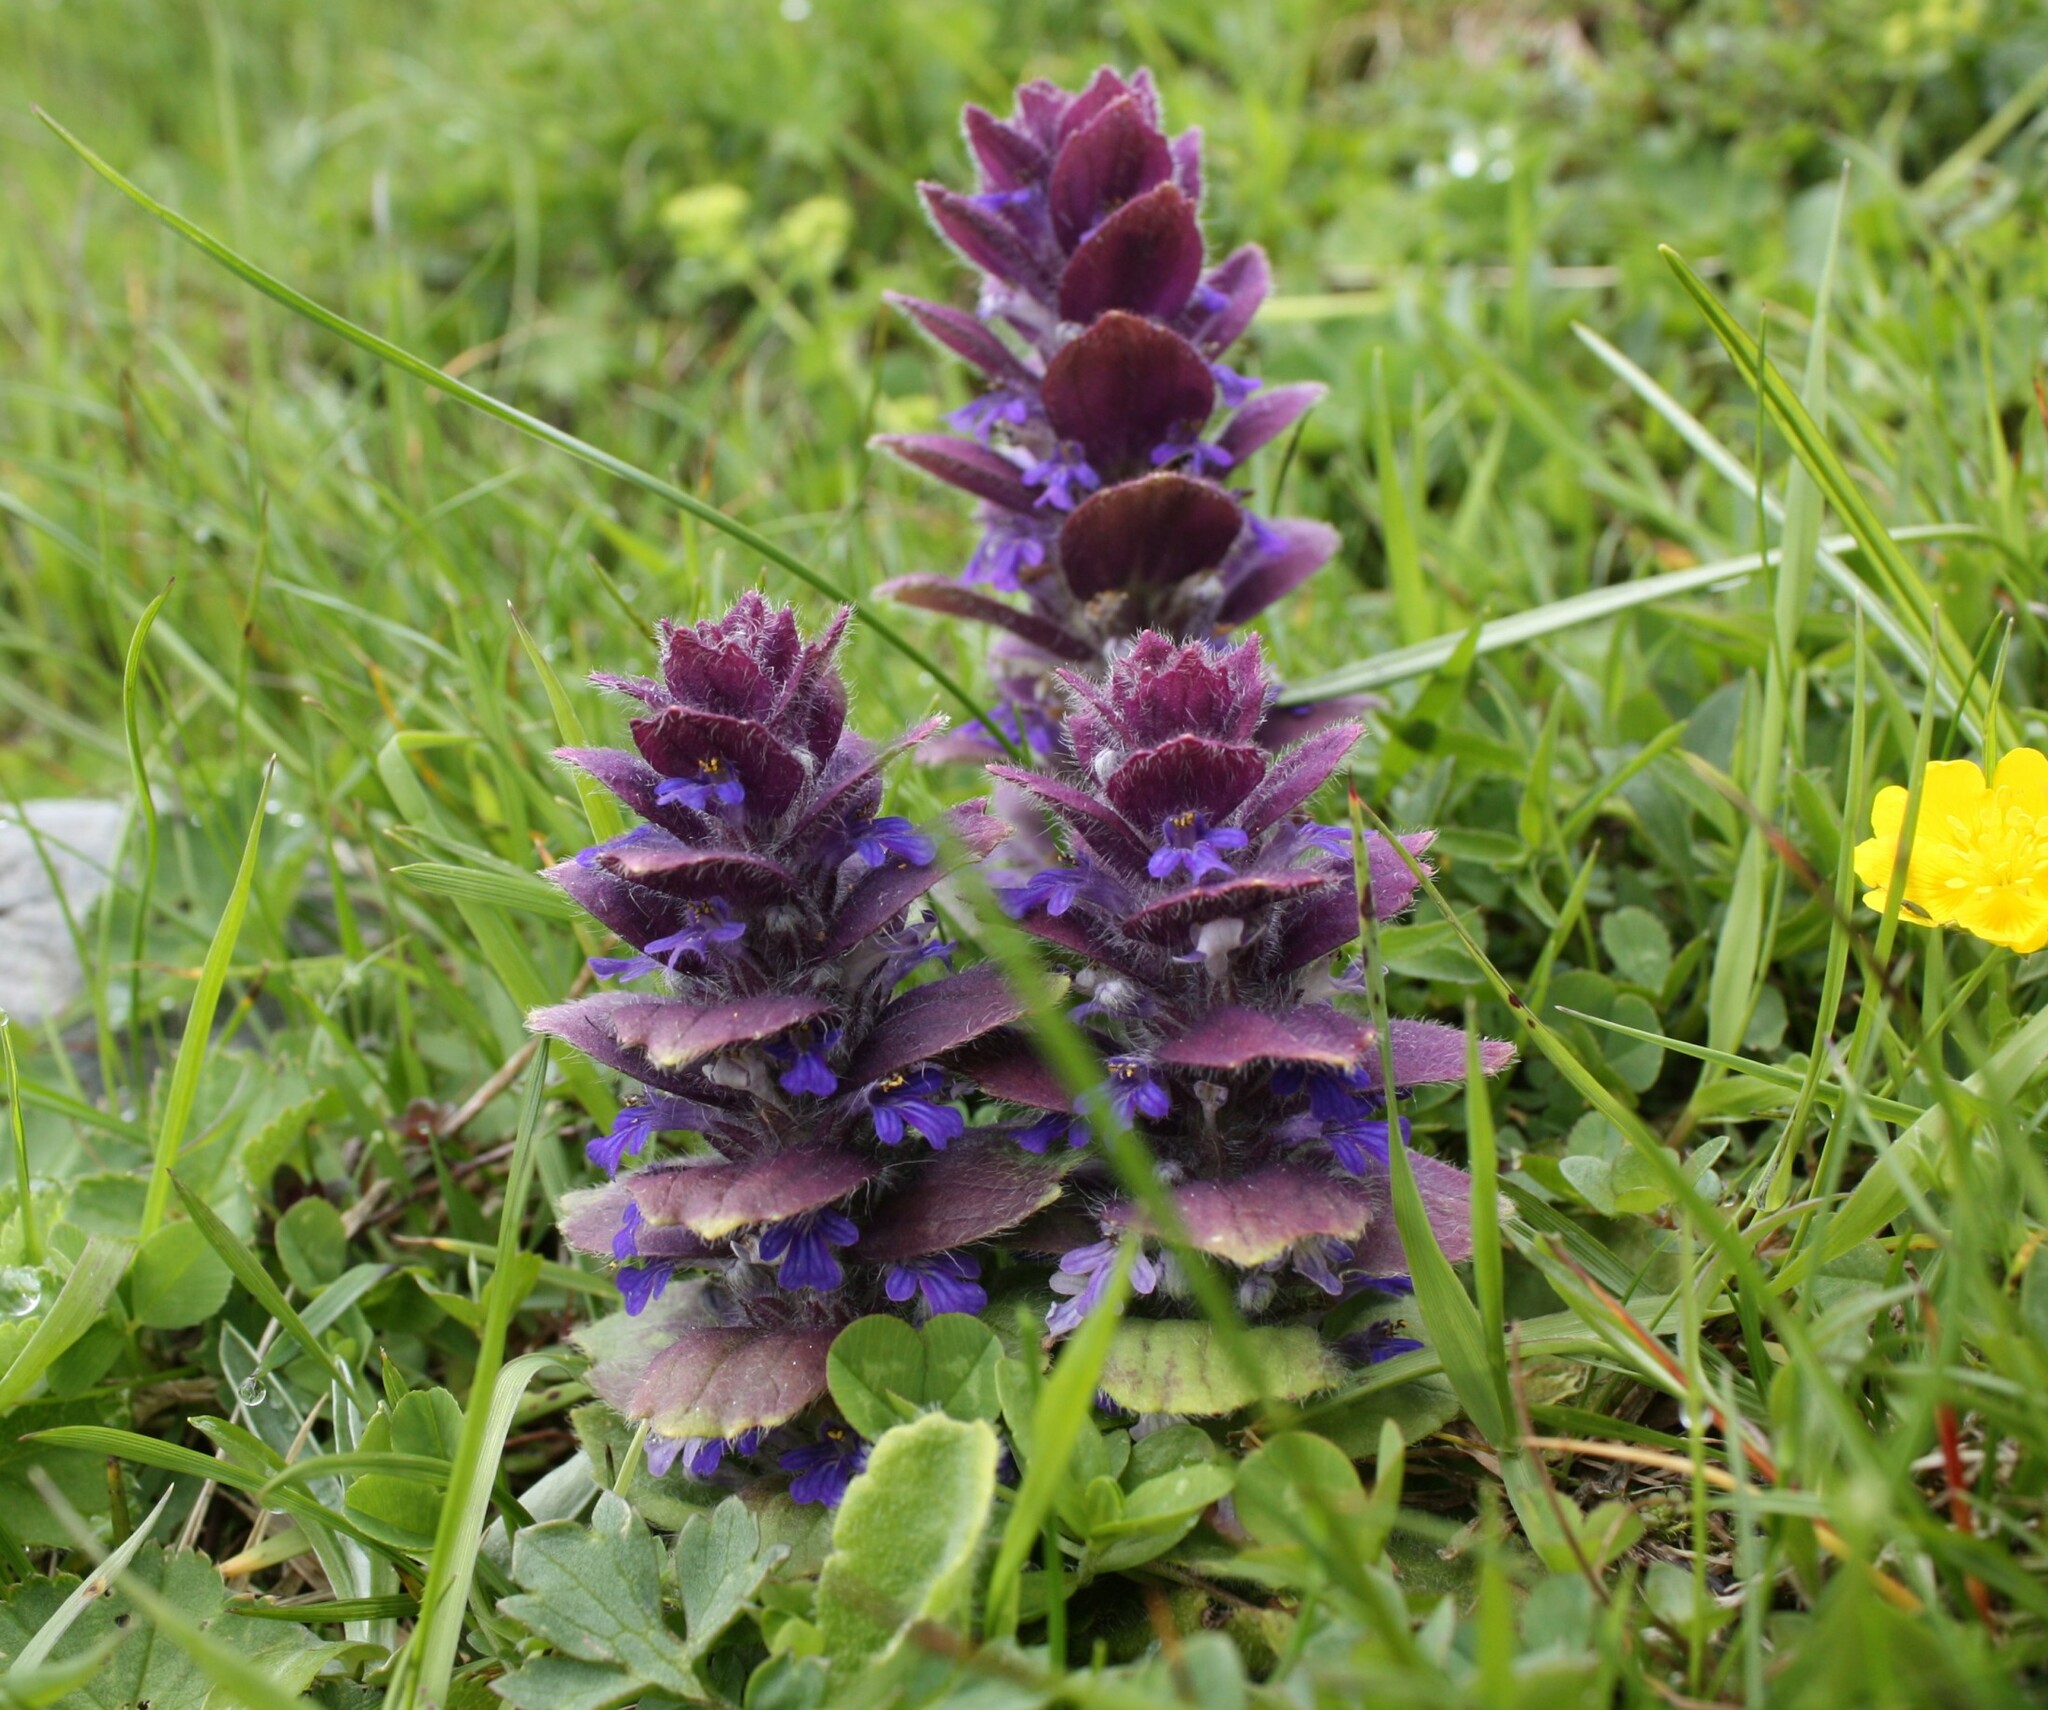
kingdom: Plantae
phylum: Tracheophyta
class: Magnoliopsida
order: Lamiales
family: Lamiaceae
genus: Ajuga
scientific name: Ajuga pyramidalis
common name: Pyramid bugle
